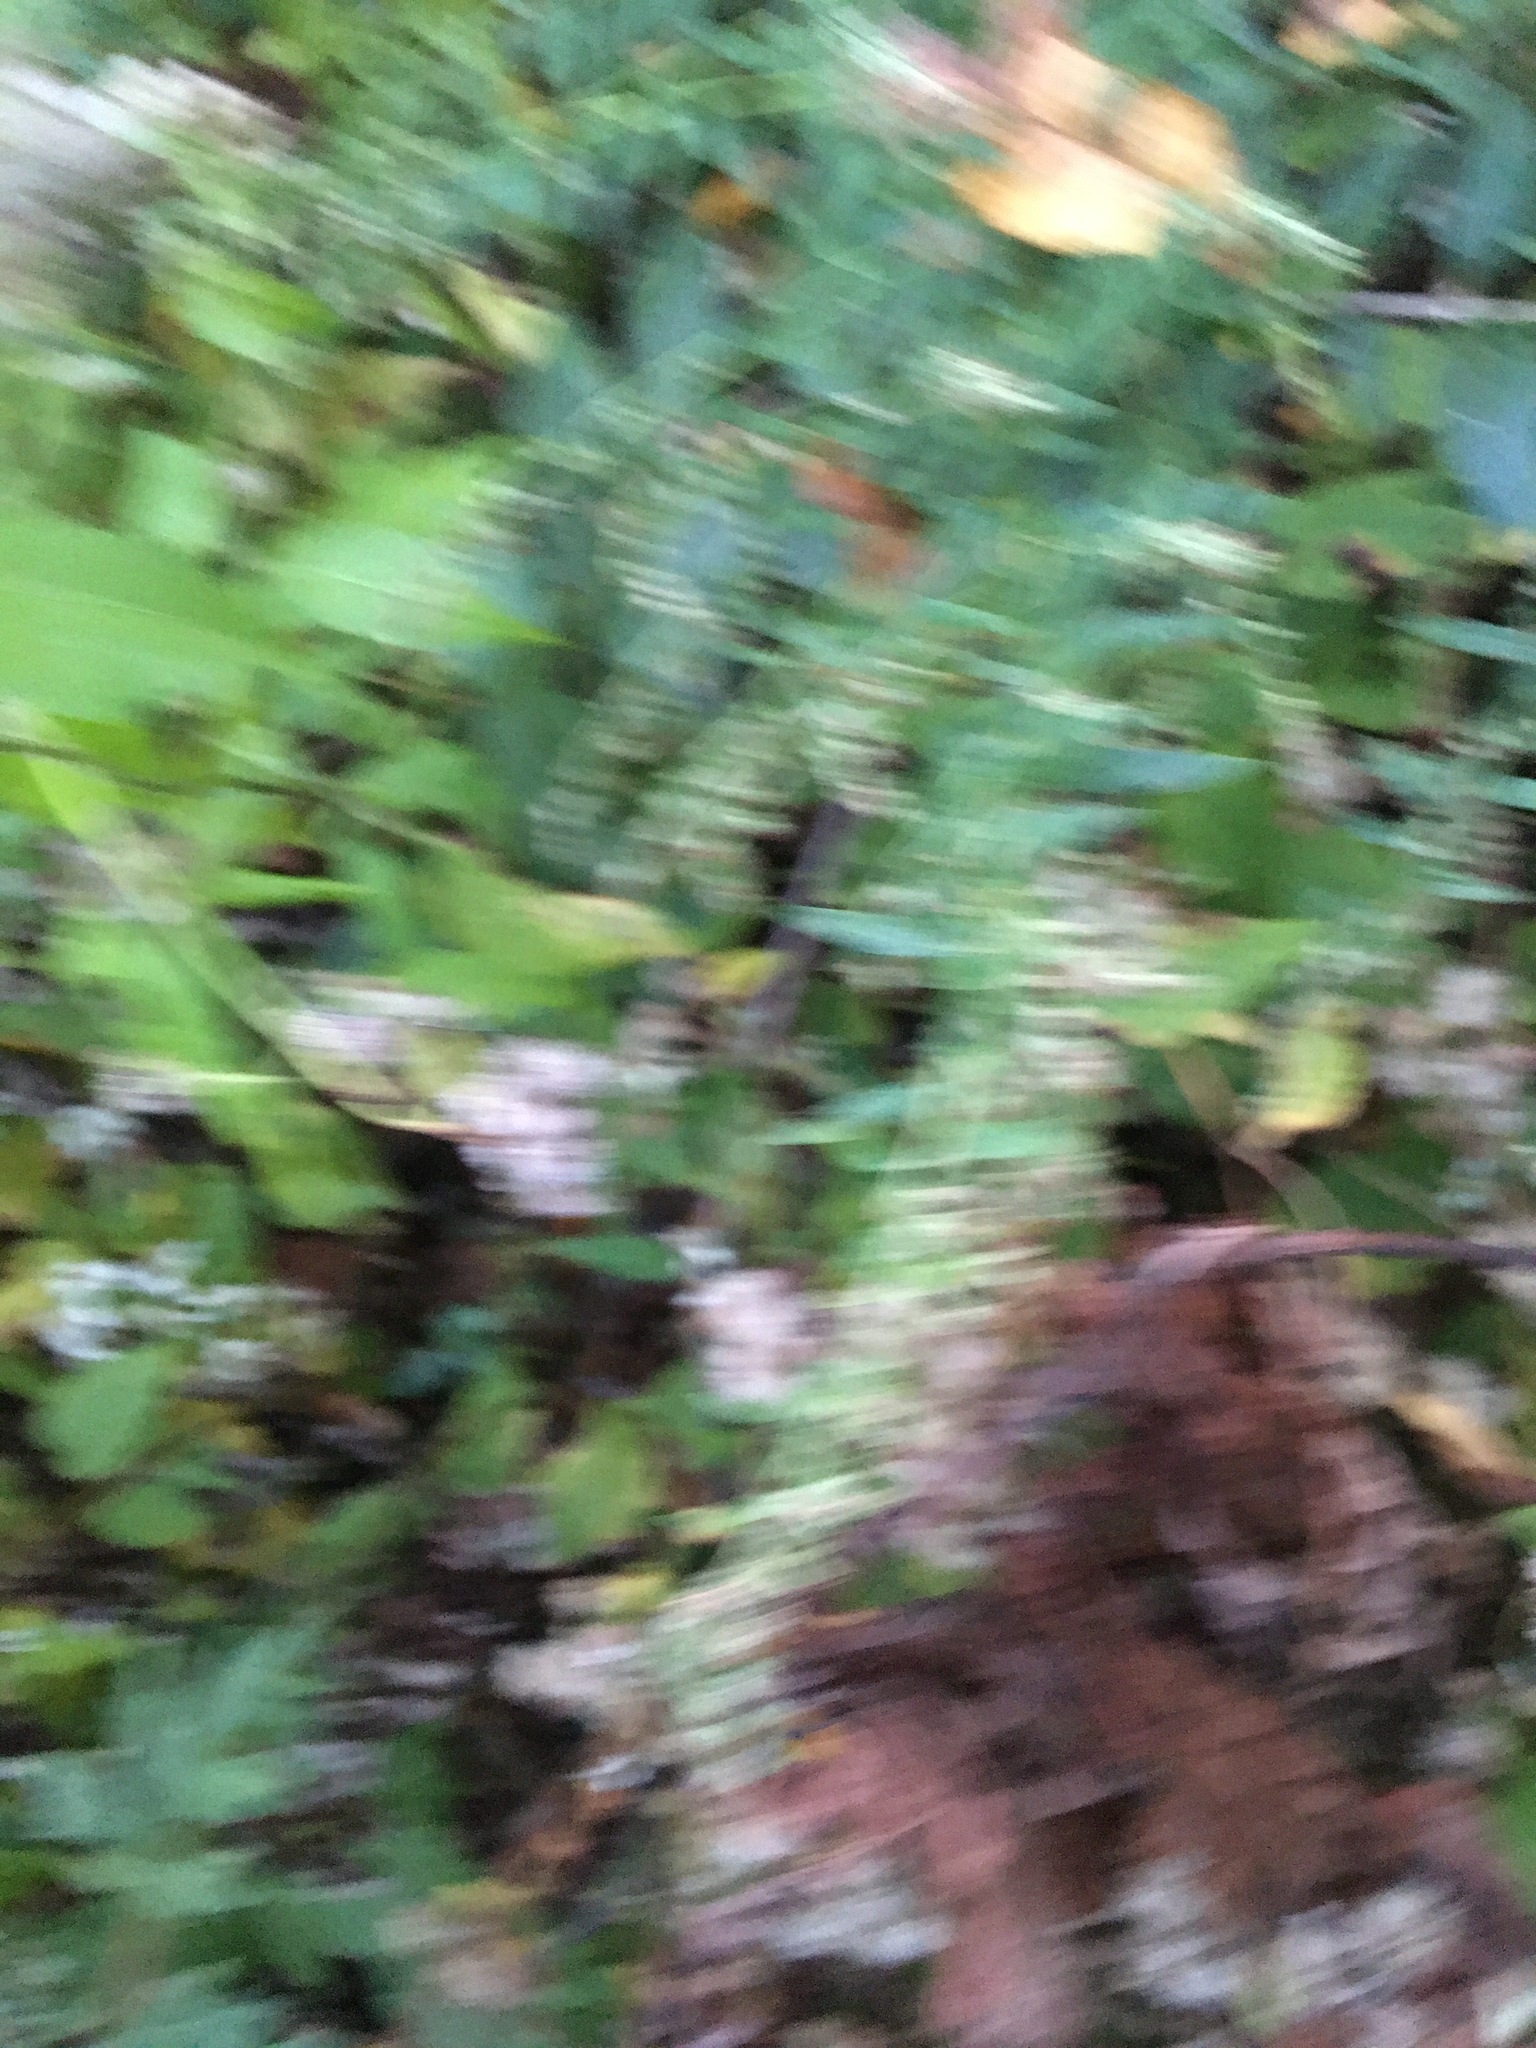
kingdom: Plantae
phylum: Tracheophyta
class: Magnoliopsida
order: Asterales
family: Asteraceae
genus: Artemisia
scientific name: Artemisia vulgaris
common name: Mugwort
